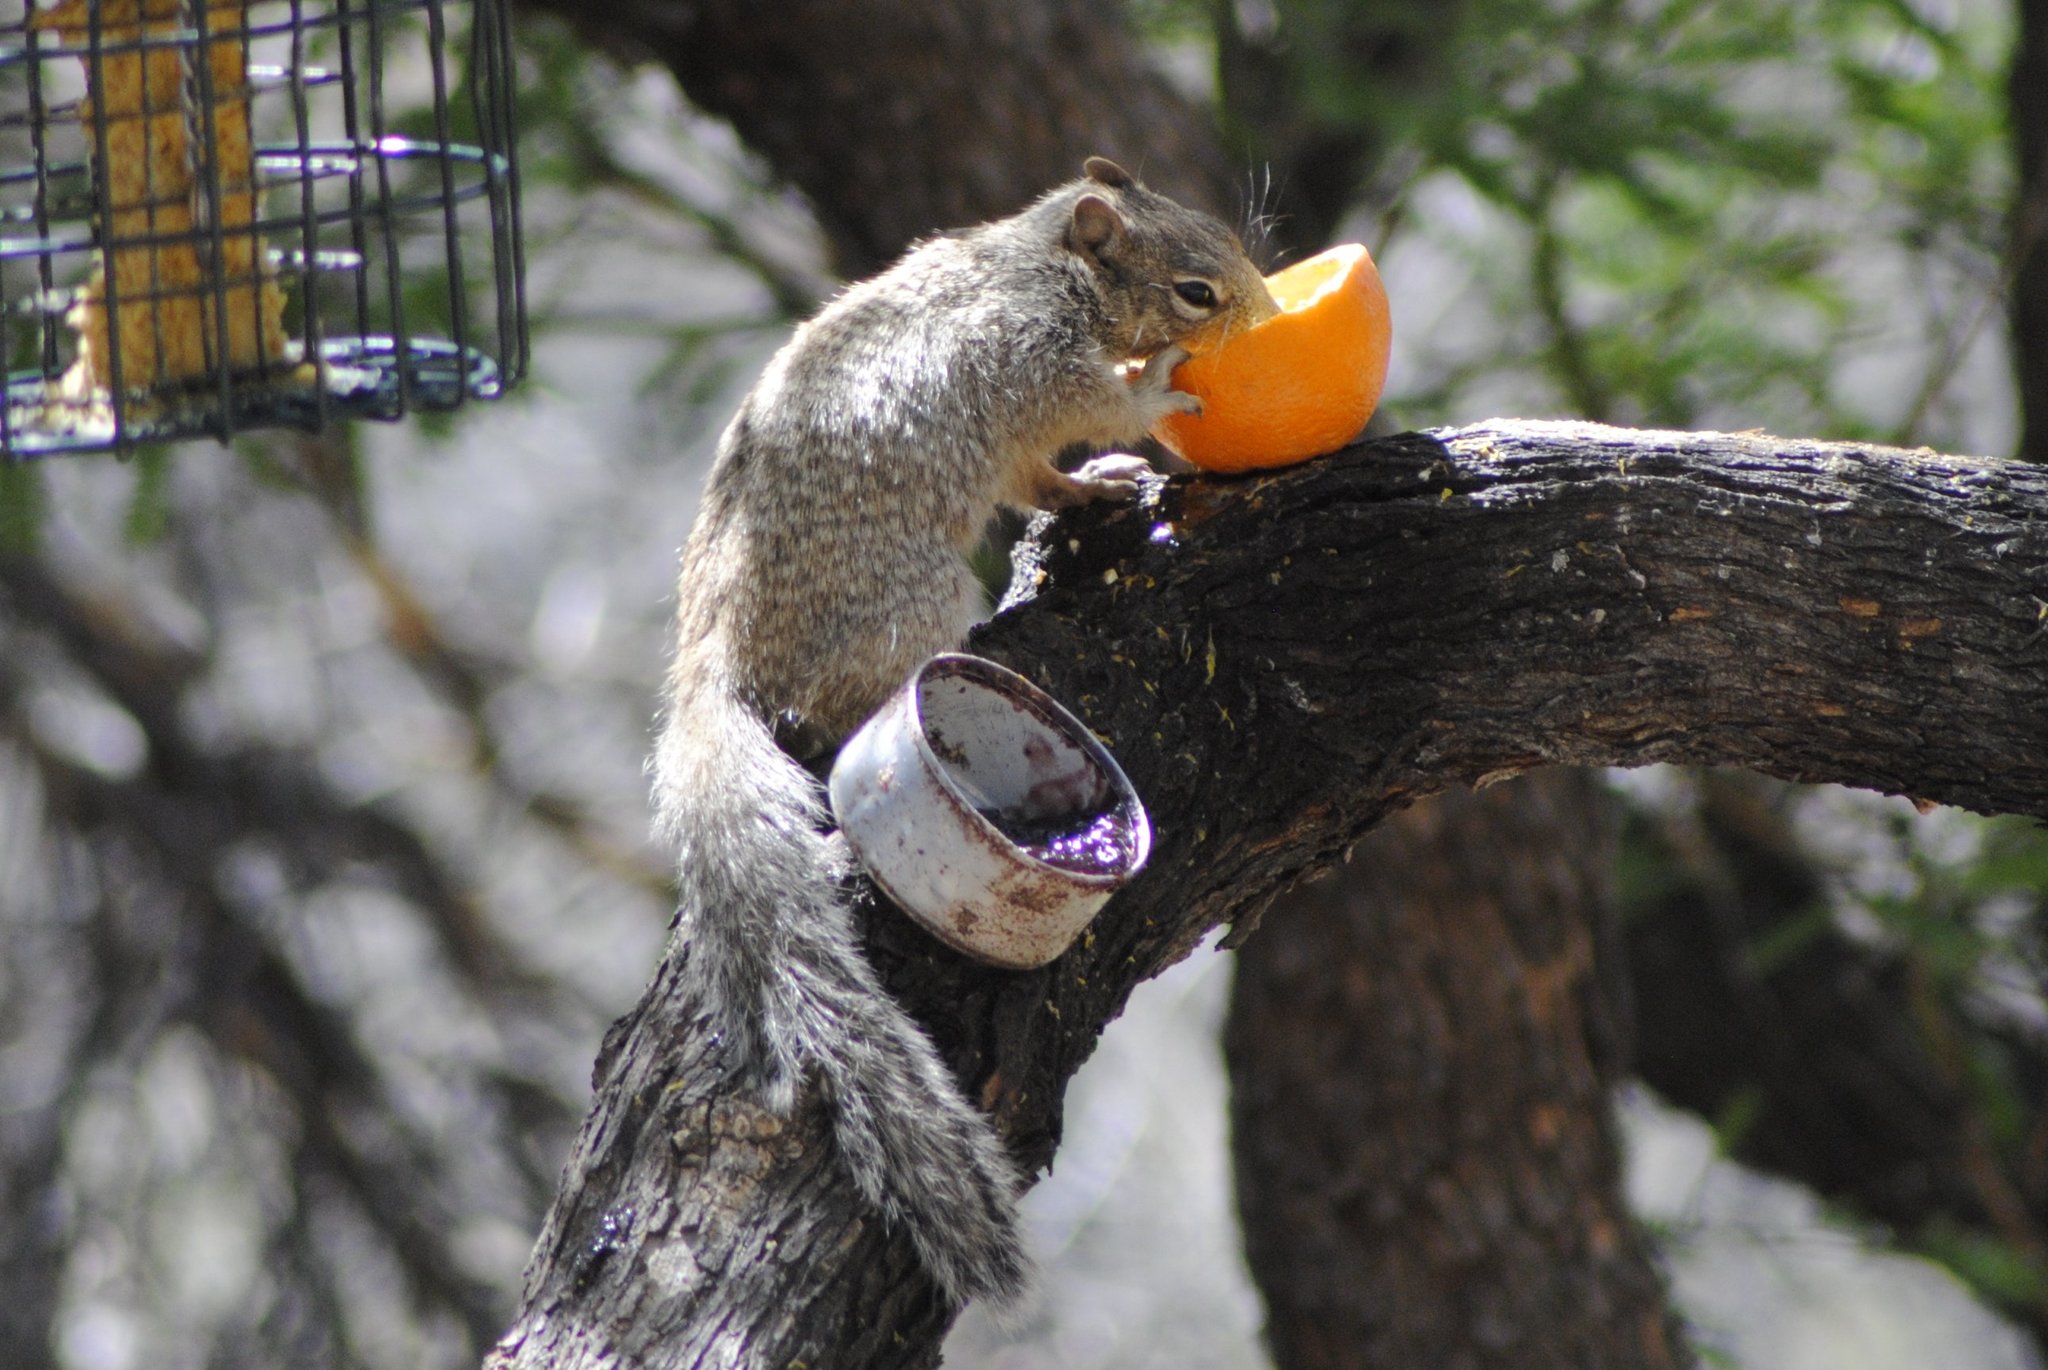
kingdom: Animalia
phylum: Chordata
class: Mammalia
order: Rodentia
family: Sciuridae
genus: Otospermophilus
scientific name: Otospermophilus variegatus
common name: Rock squirrel
